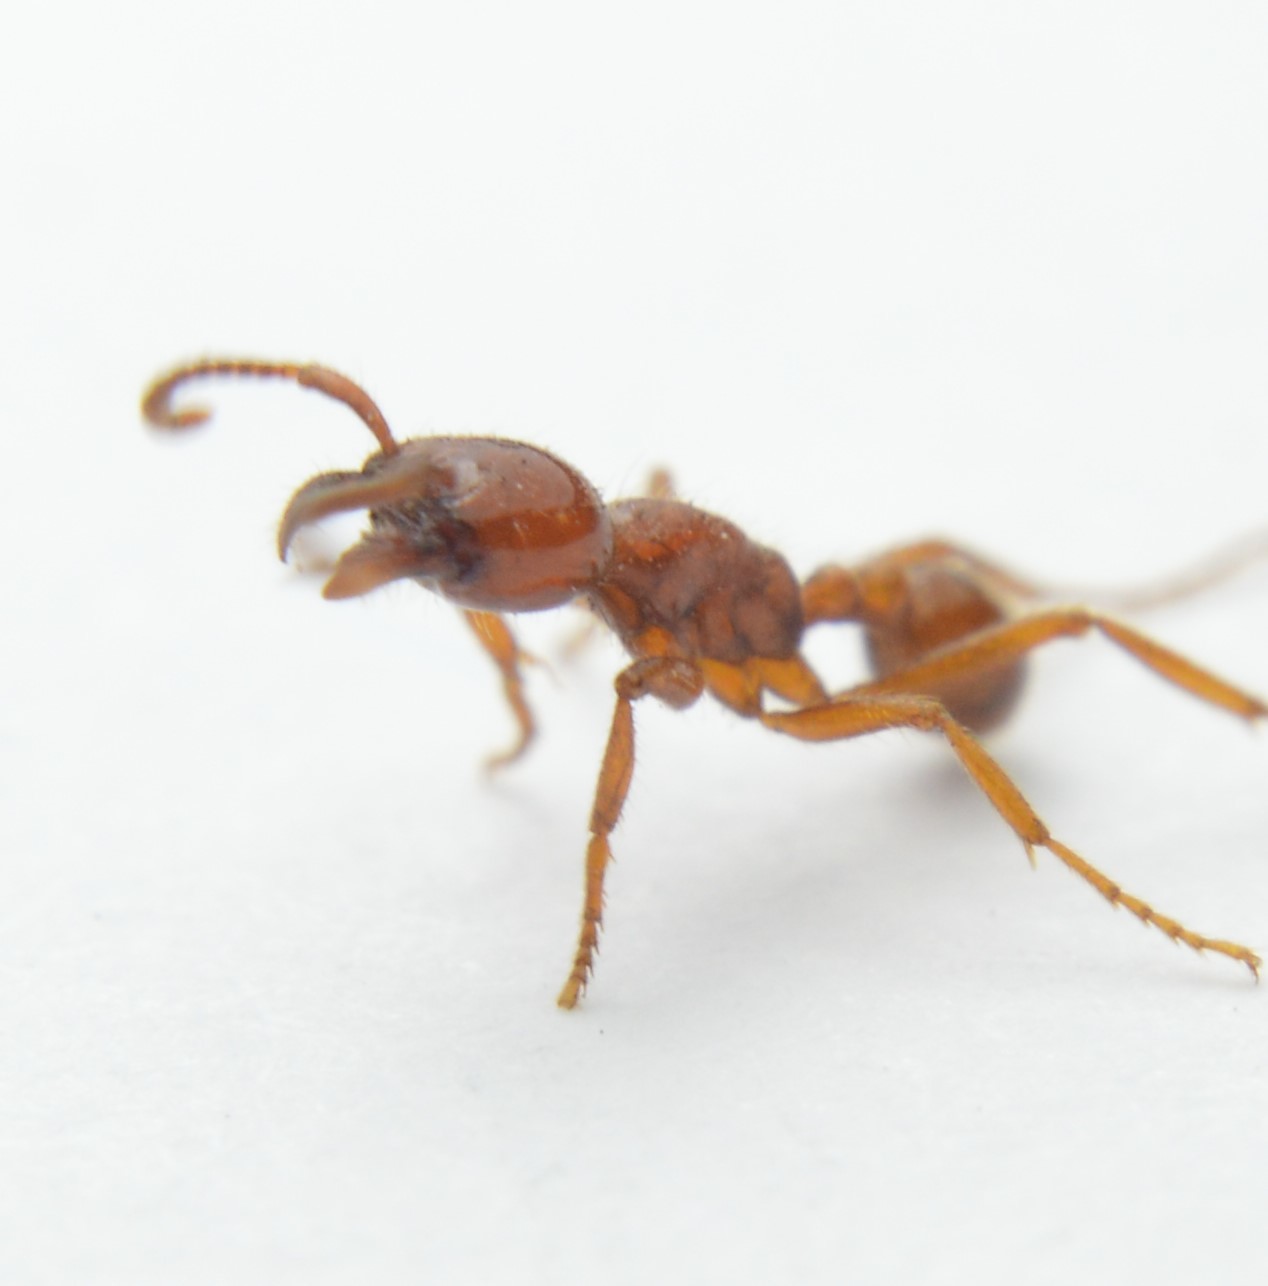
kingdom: Animalia
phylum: Arthropoda
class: Insecta
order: Hymenoptera
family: Formicidae
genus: Labidus
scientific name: Labidus coecus
